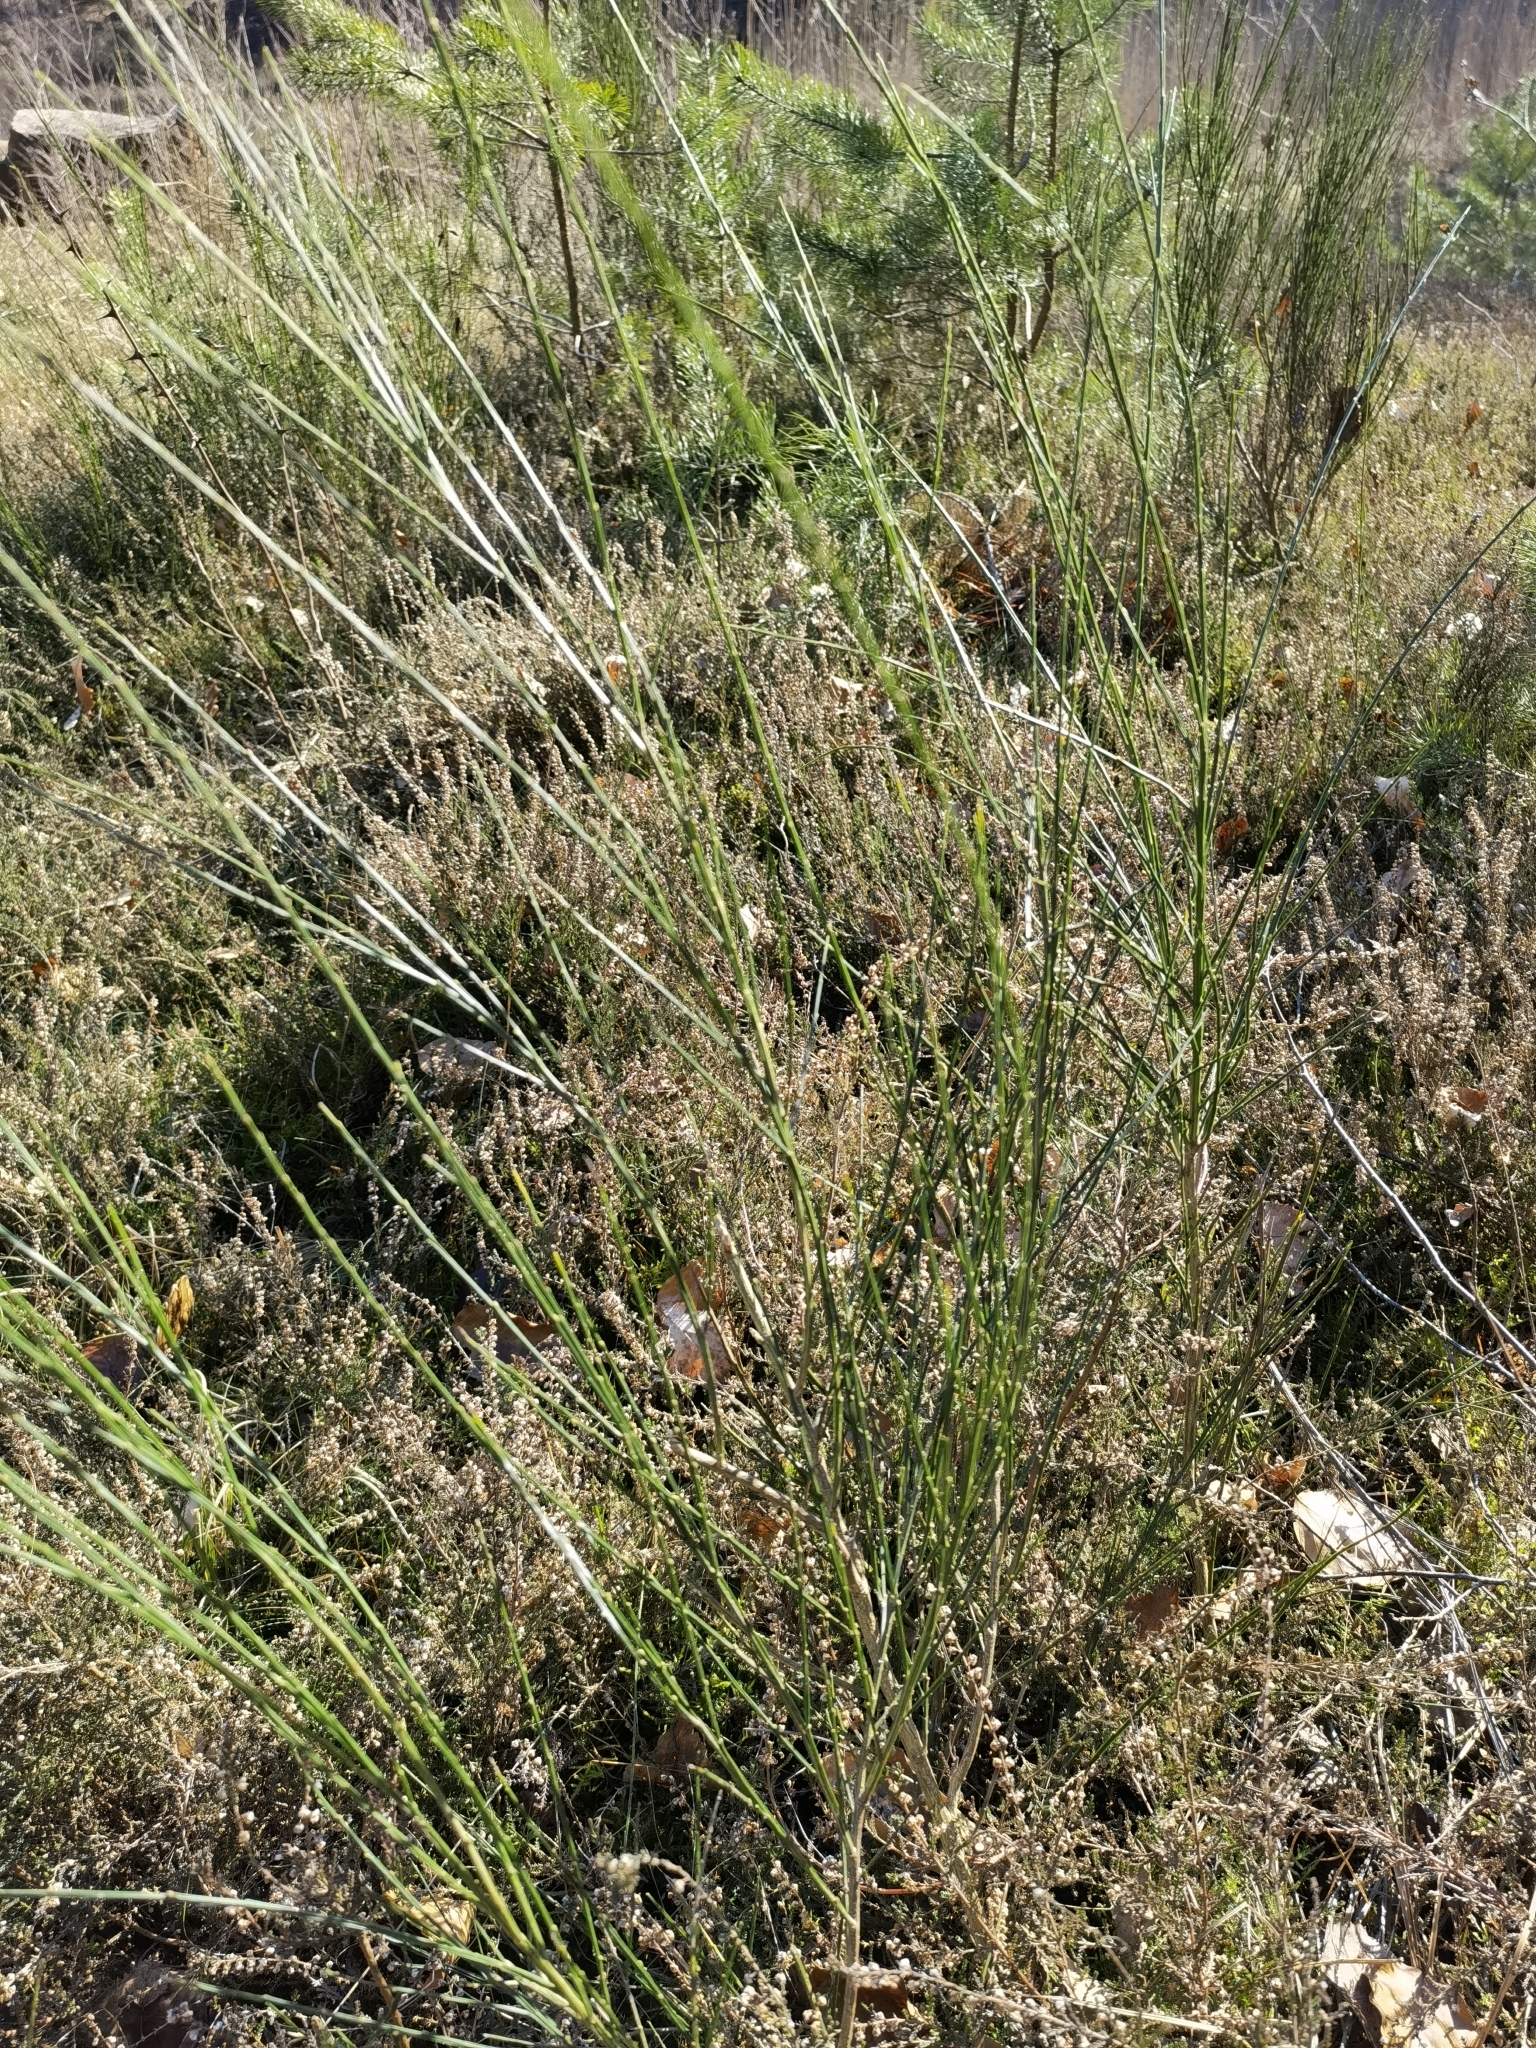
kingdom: Plantae
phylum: Tracheophyta
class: Magnoliopsida
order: Fabales
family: Fabaceae
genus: Cytisus
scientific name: Cytisus scoparius
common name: Scotch broom
